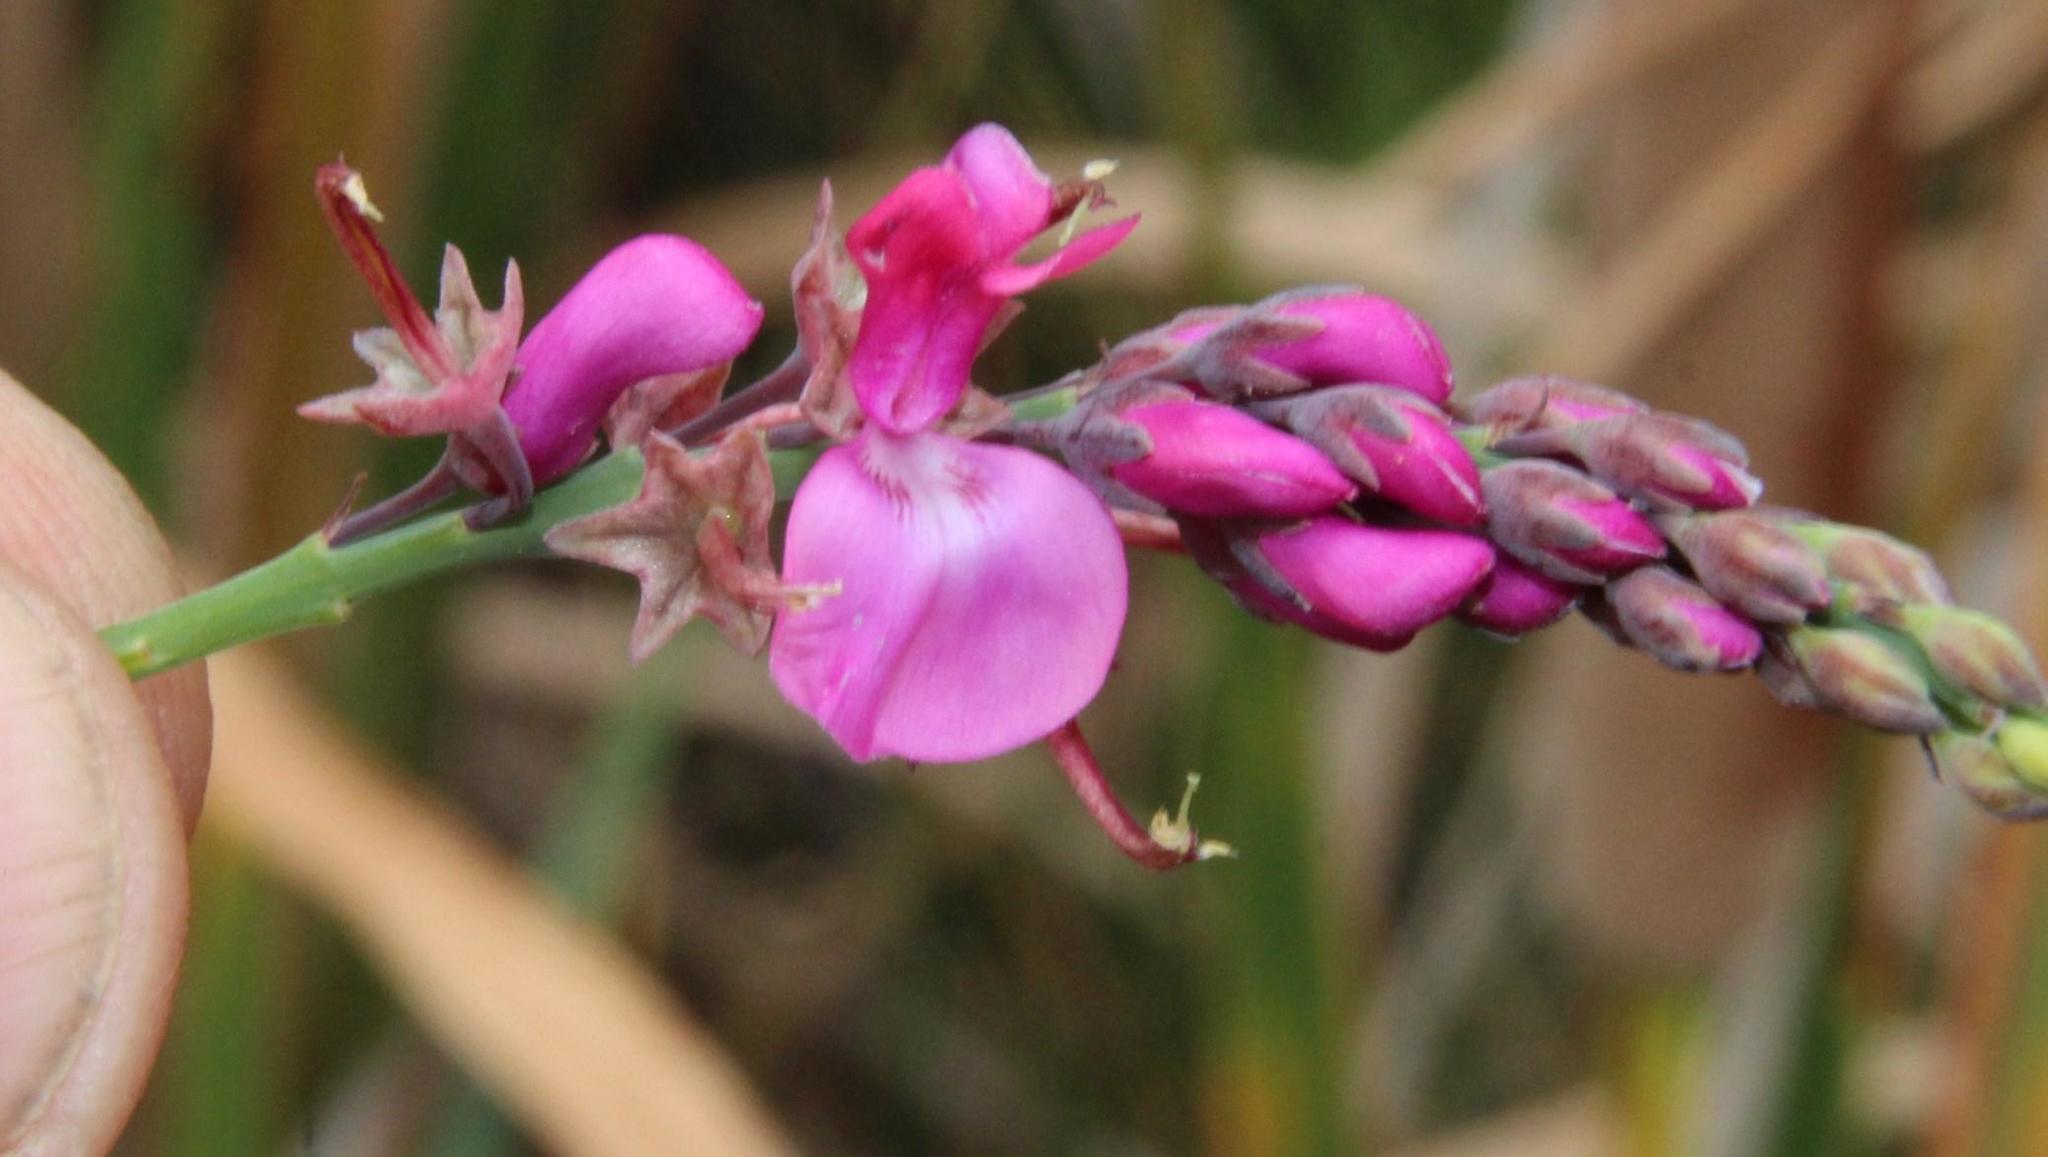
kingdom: Plantae
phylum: Tracheophyta
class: Magnoliopsida
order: Fabales
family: Fabaceae
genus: Indigofera
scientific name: Indigofera filifolia
